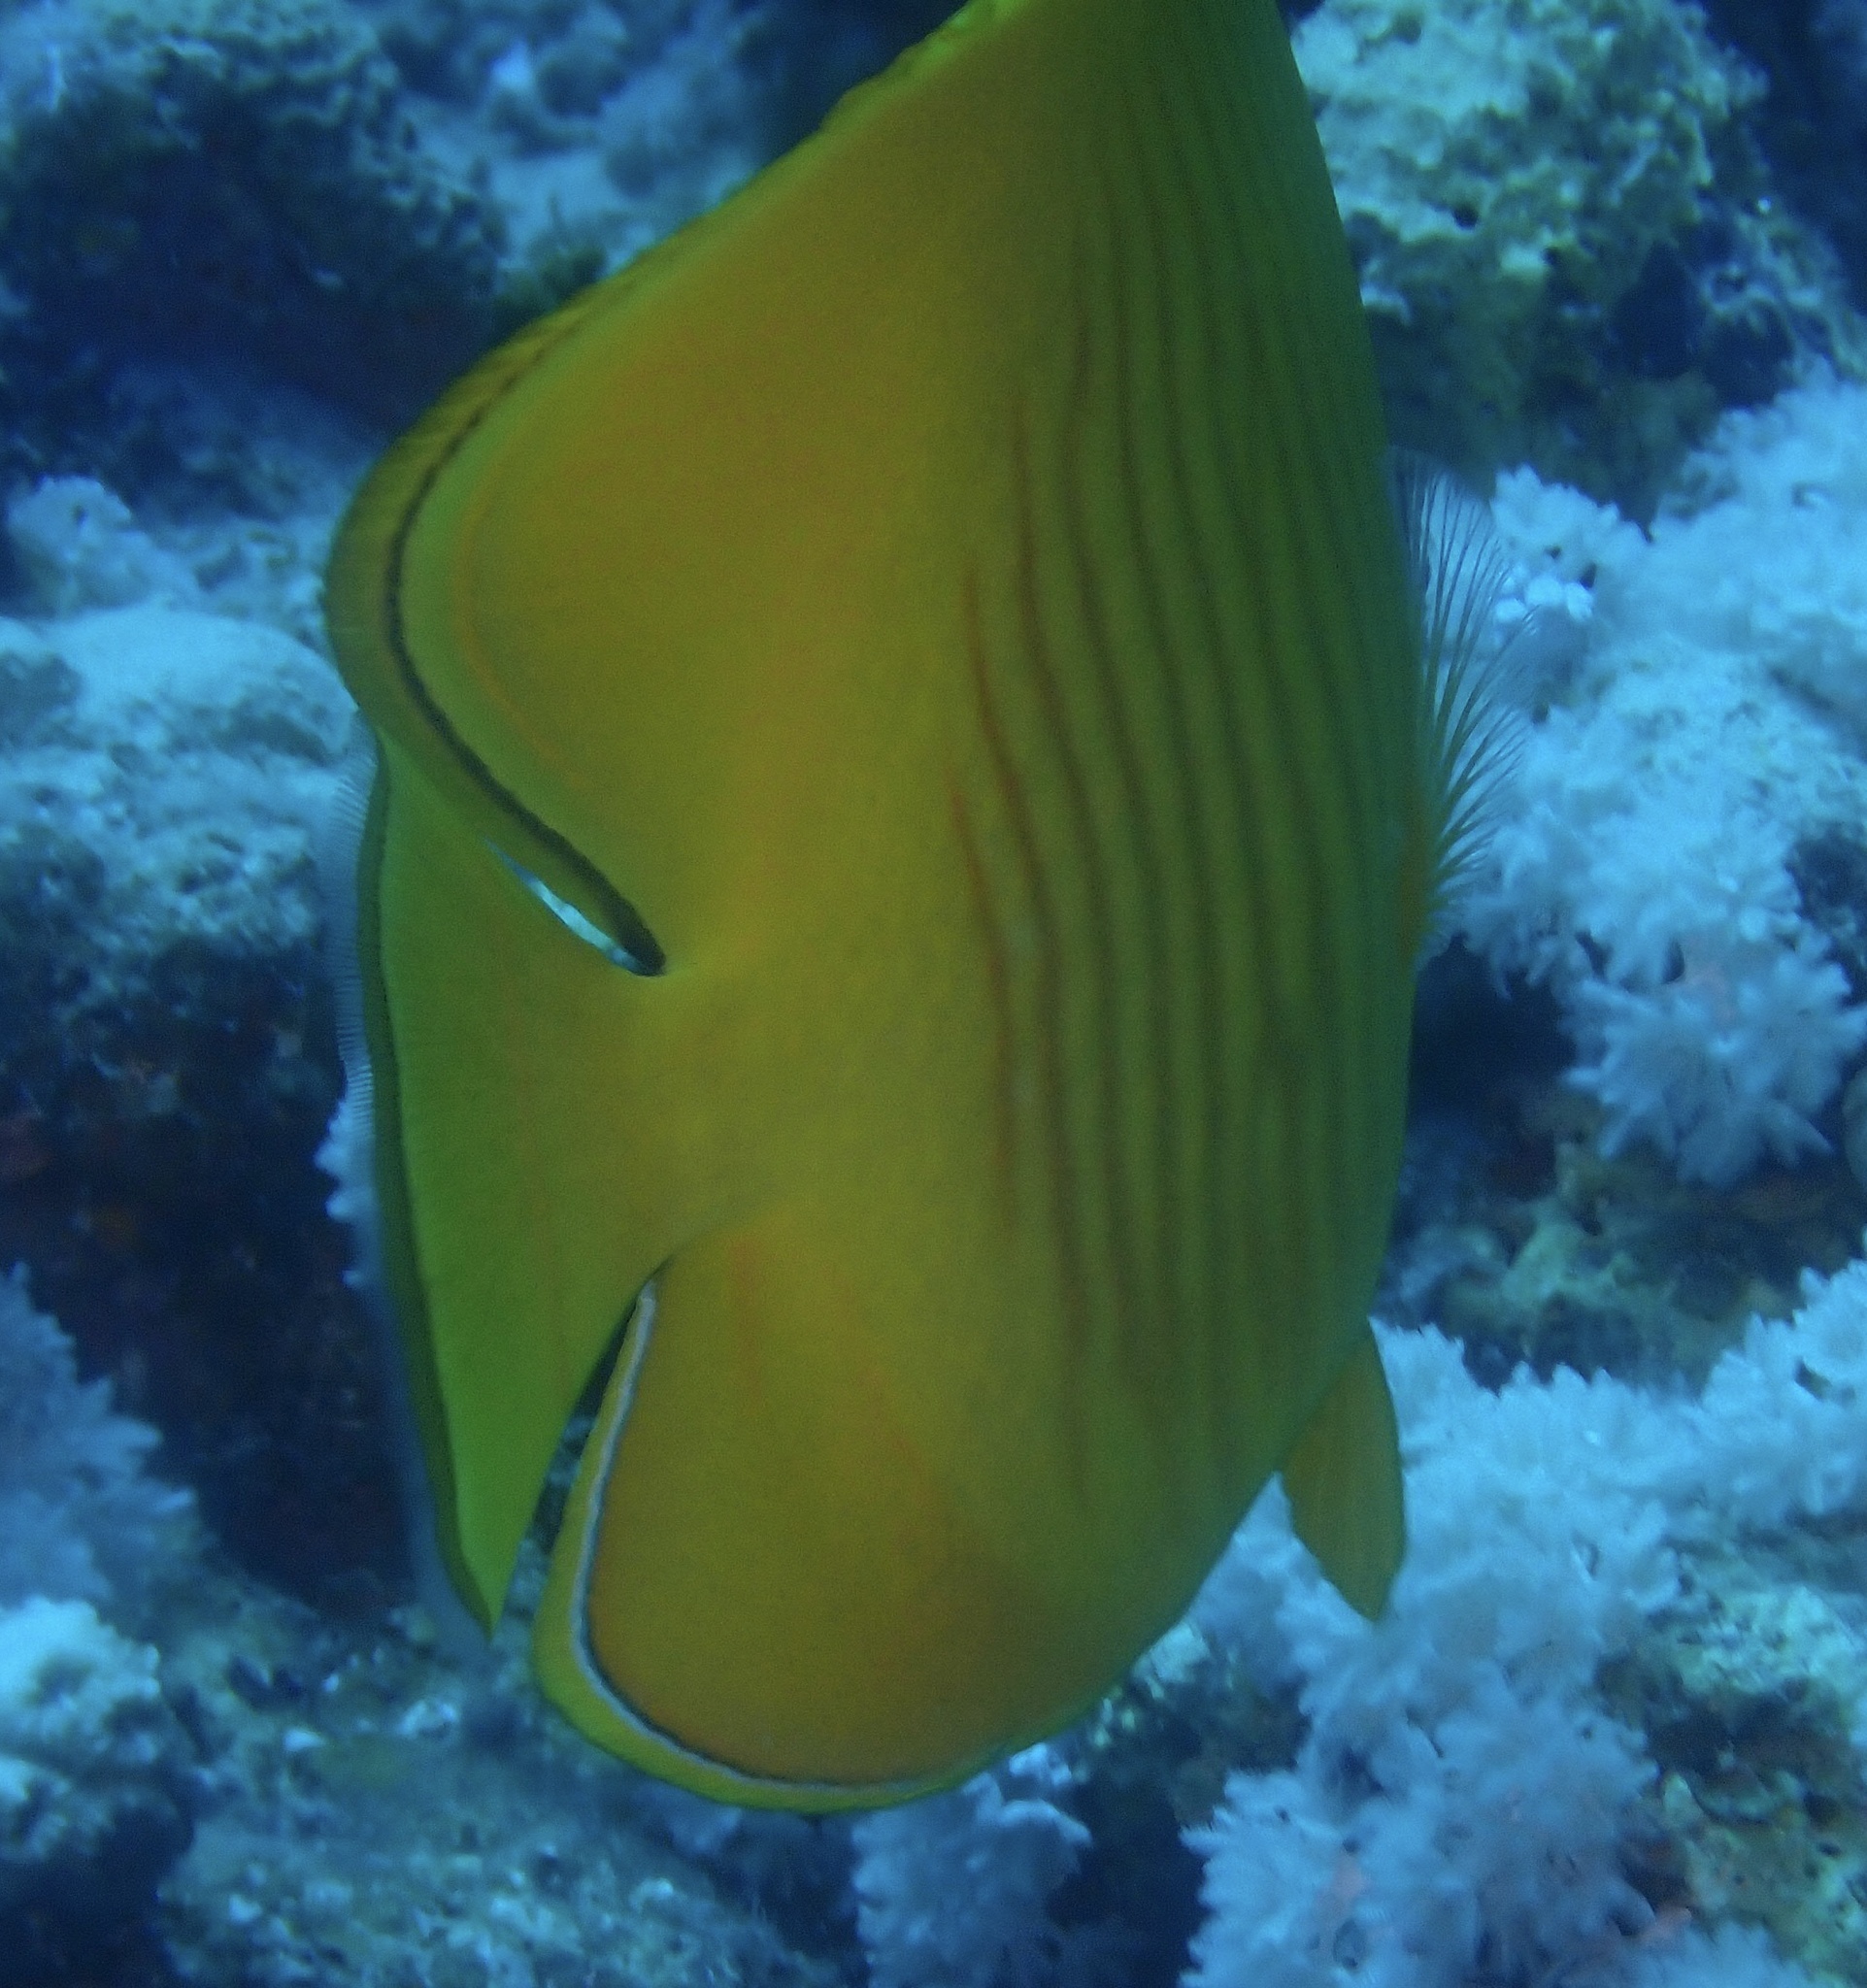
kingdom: Animalia
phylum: Chordata
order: Perciformes
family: Chaetodontidae
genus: Chaetodon
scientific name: Chaetodon semilarvatus
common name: Golden butterflyfish
